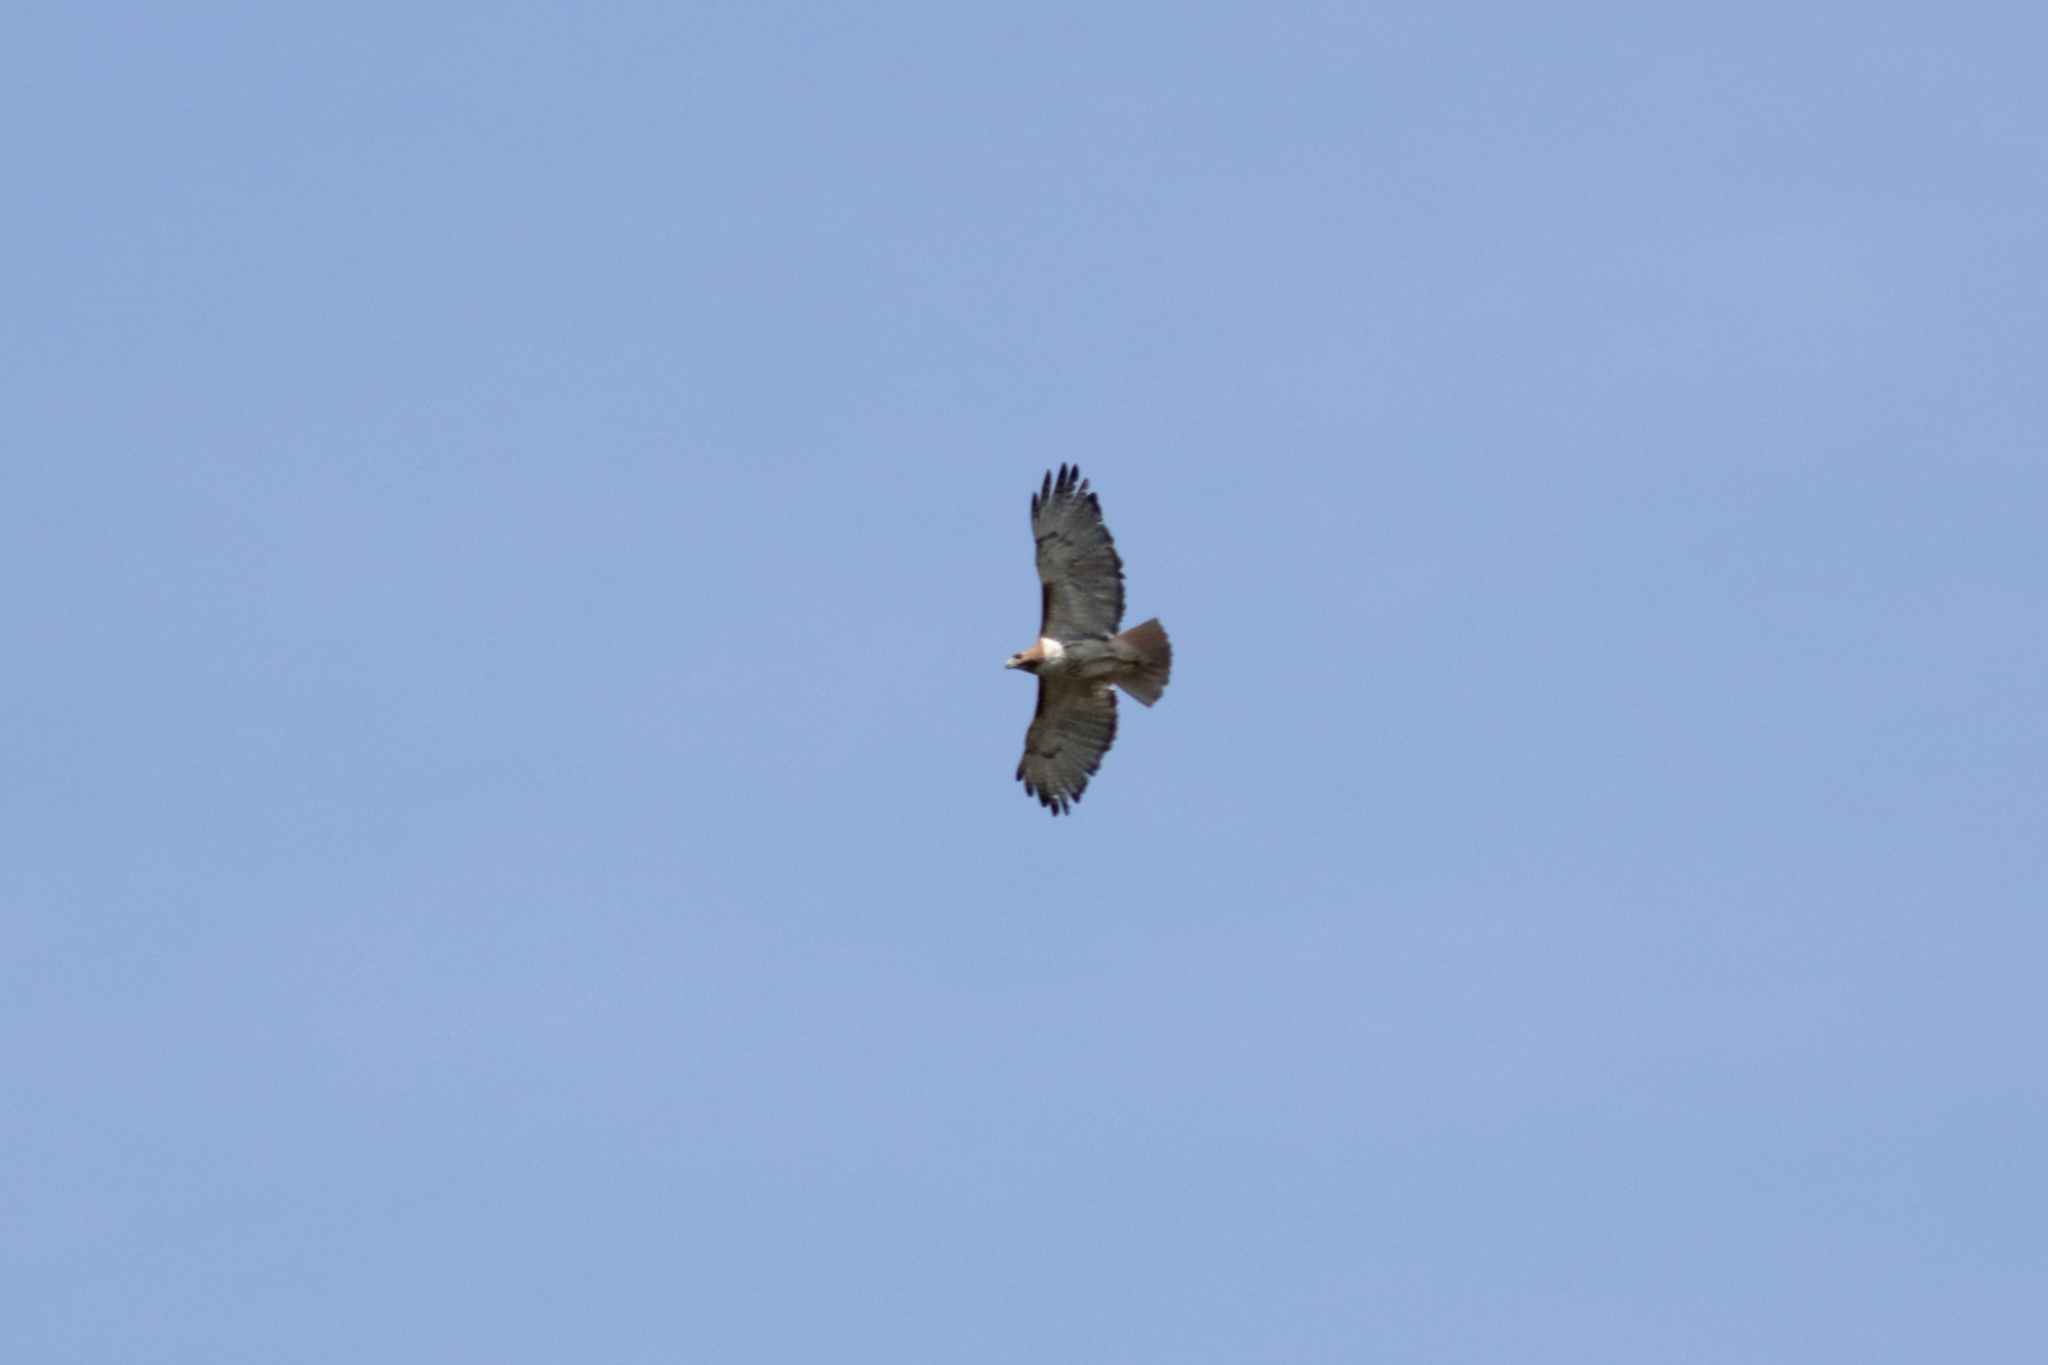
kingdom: Animalia
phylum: Chordata
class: Aves
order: Accipitriformes
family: Accipitridae
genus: Buteo
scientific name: Buteo jamaicensis
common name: Red-tailed hawk
